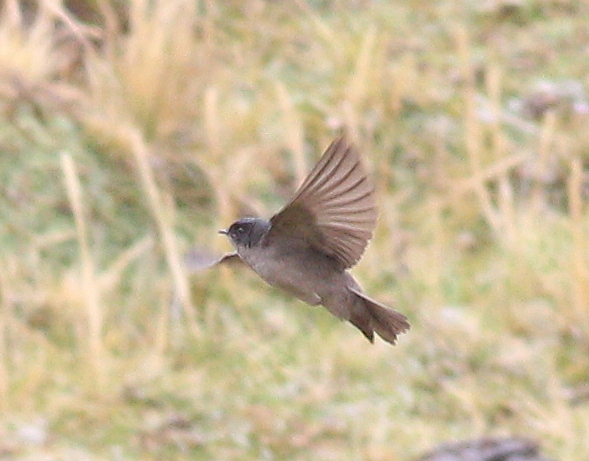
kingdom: Animalia
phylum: Chordata
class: Aves
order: Passeriformes
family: Hirundinidae
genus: Notiochelidon
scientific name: Notiochelidon murina
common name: Brown-bellied swallow
